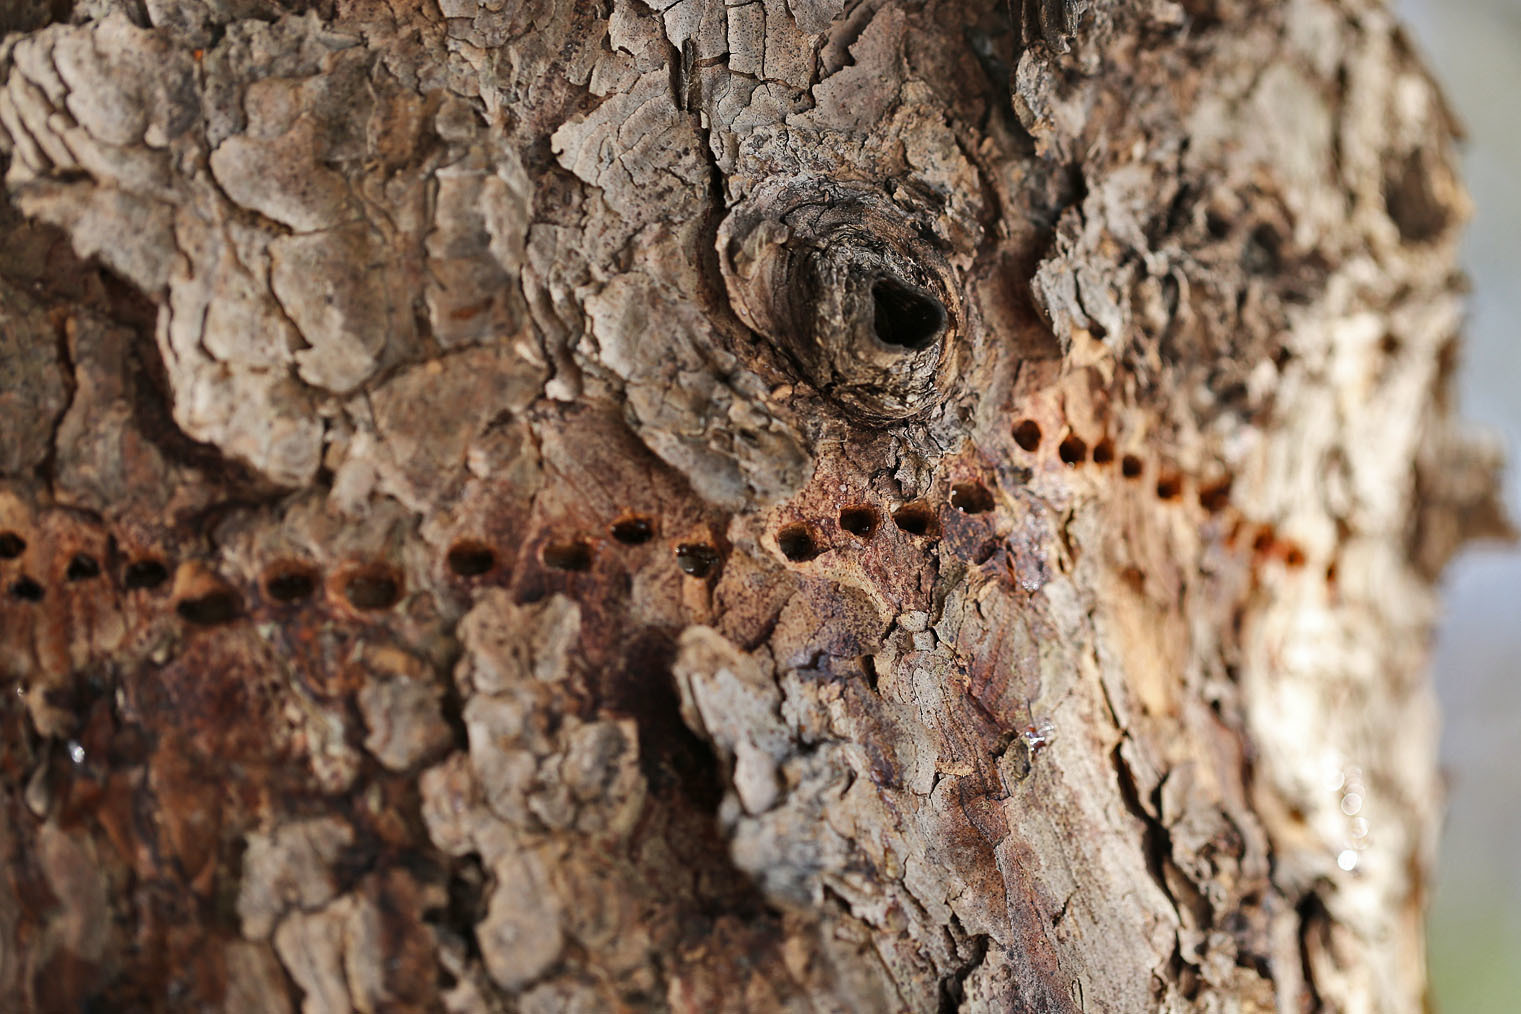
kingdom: Animalia
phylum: Chordata
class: Aves
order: Piciformes
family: Picidae
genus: Sphyrapicus
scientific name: Sphyrapicus varius
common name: Yellow-bellied sapsucker
